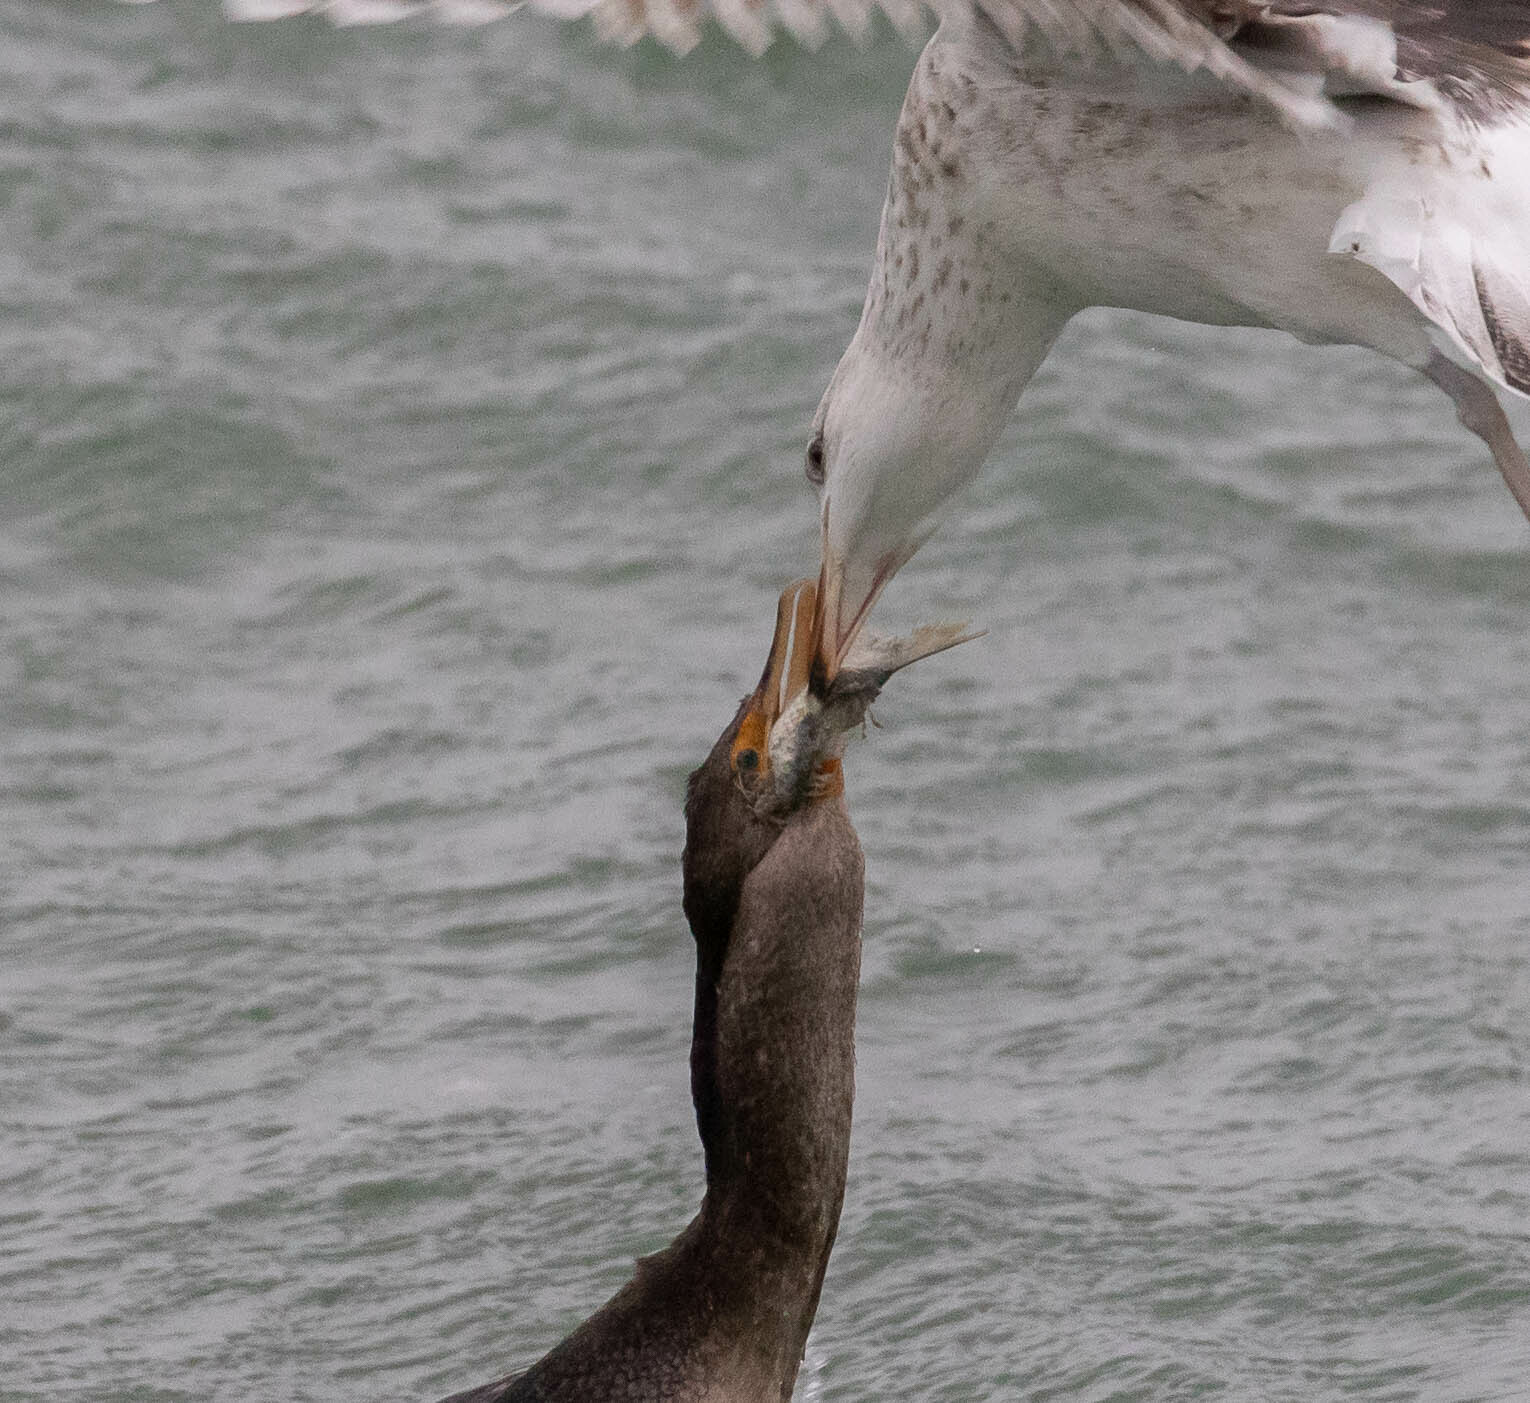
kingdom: Animalia
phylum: Chordata
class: Aves
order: Suliformes
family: Phalacrocoracidae
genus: Phalacrocorax
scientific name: Phalacrocorax auritus
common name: Double-crested cormorant
